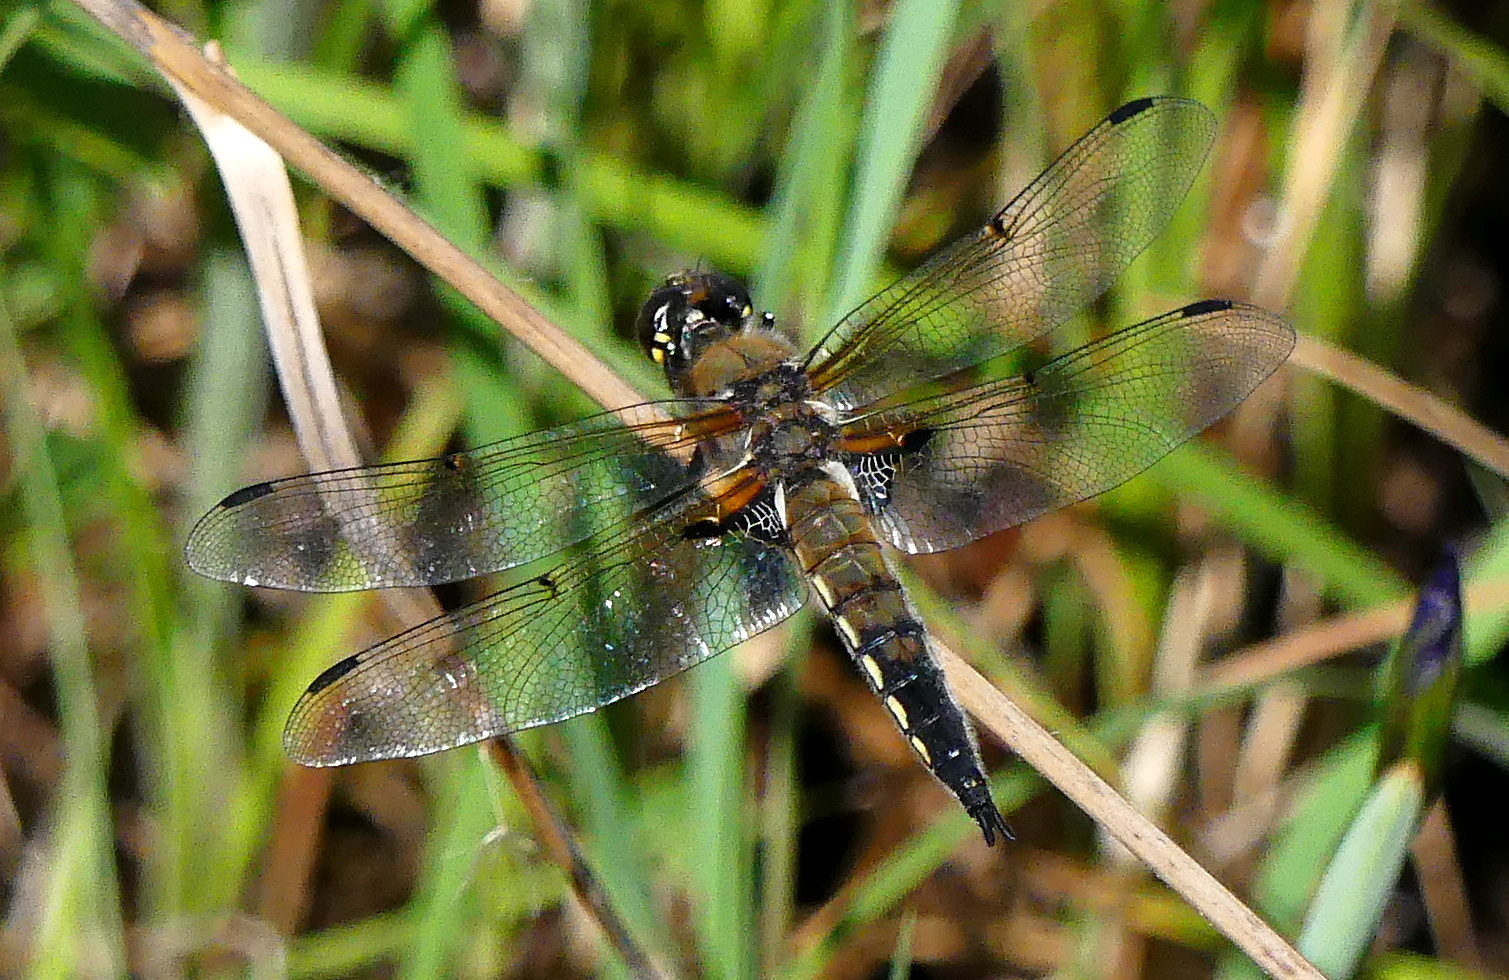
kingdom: Animalia
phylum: Arthropoda
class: Insecta
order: Odonata
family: Libellulidae
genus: Libellula
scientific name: Libellula quadrimaculata
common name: Four-spotted chaser
